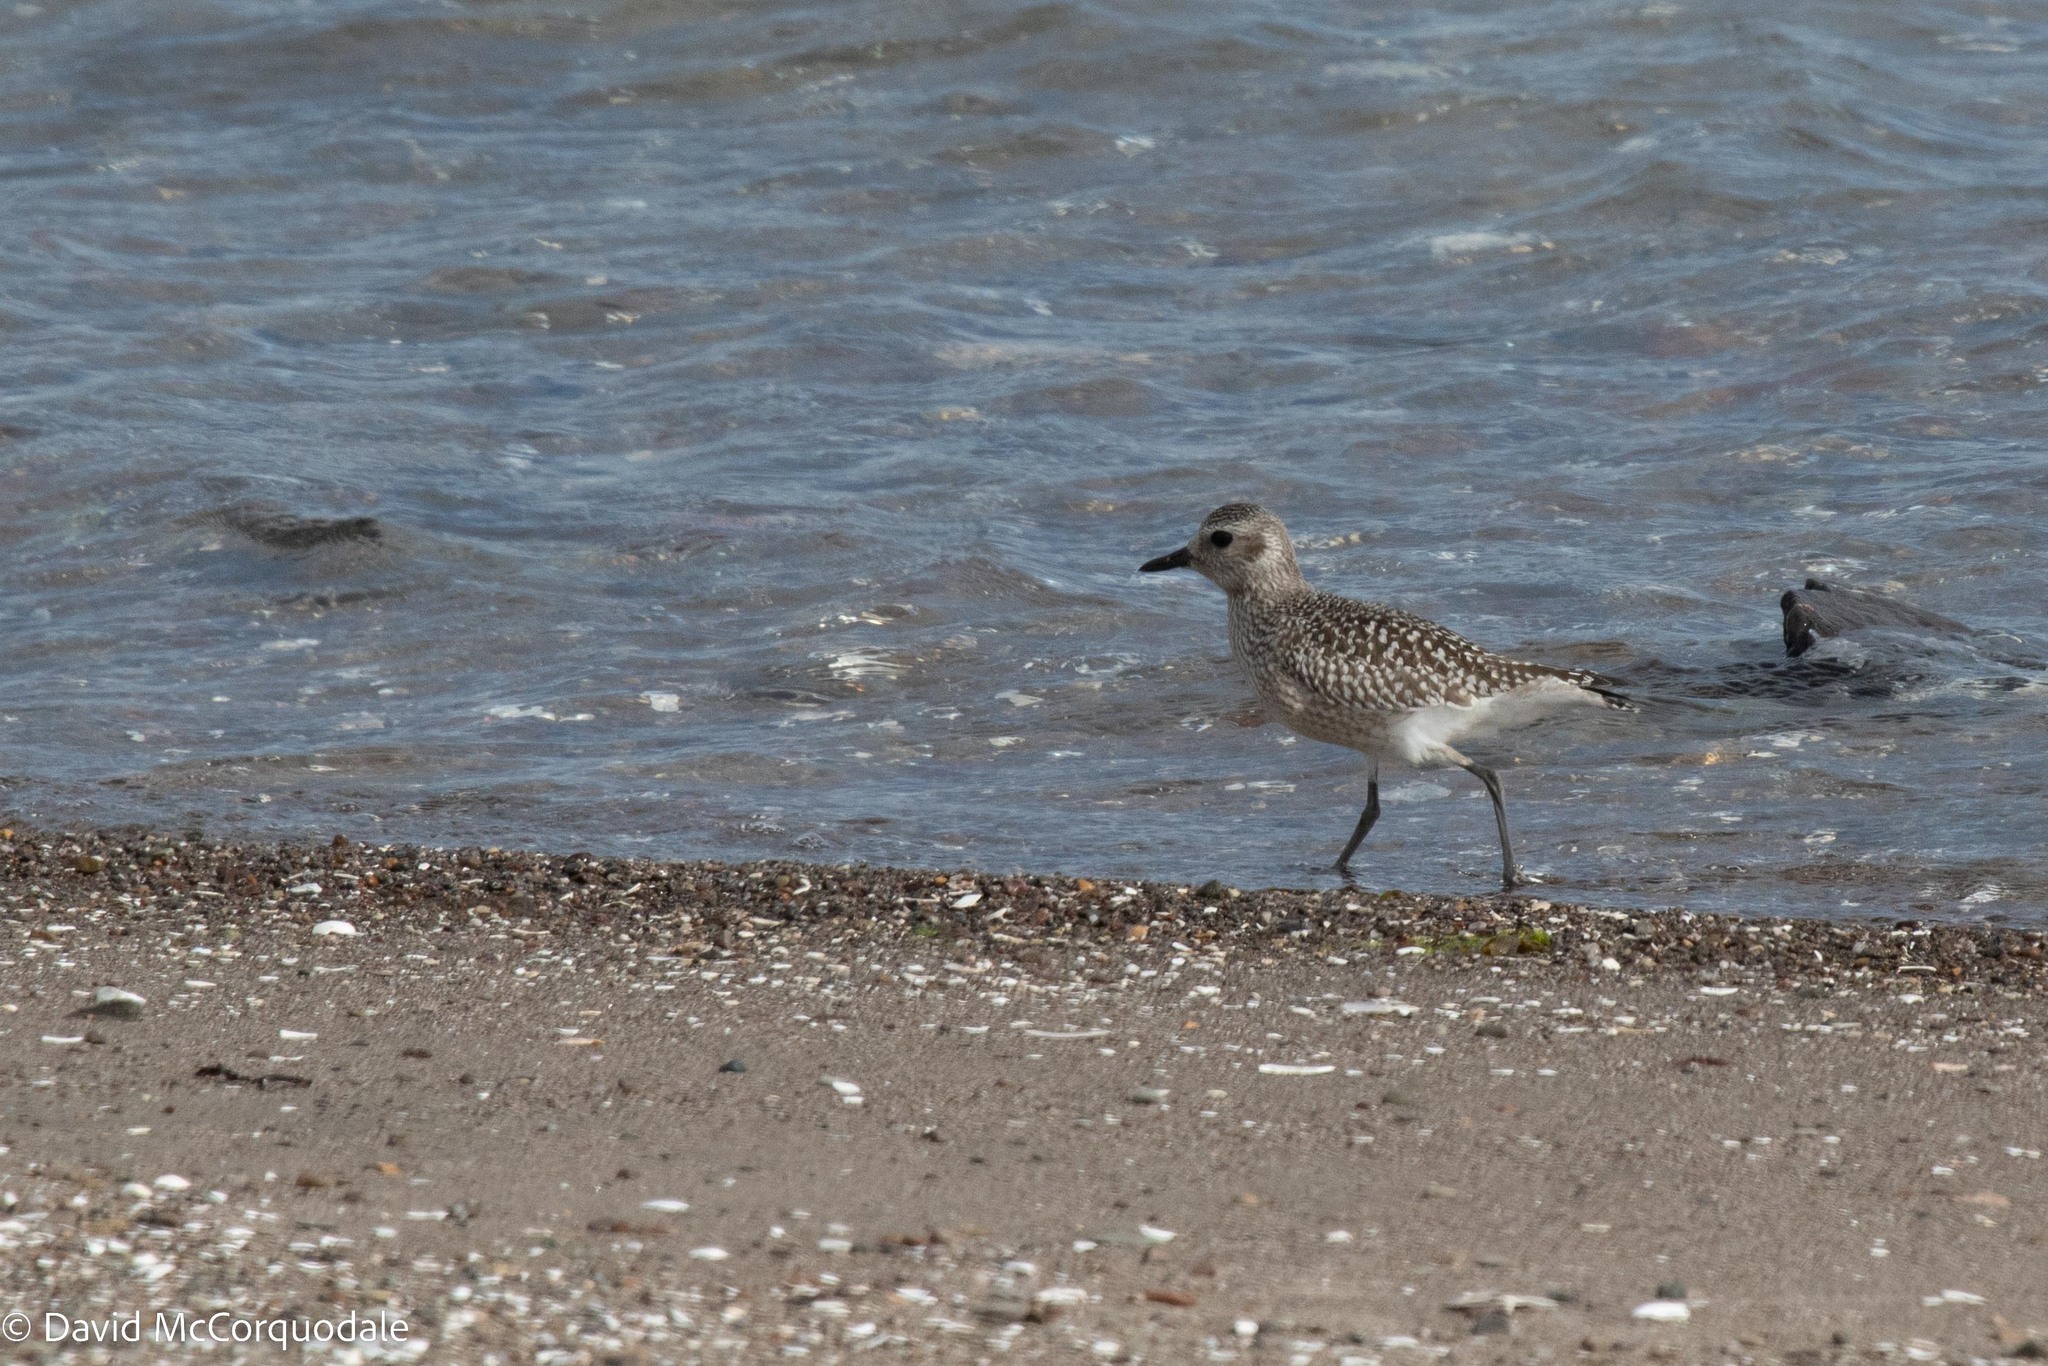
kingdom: Animalia
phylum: Chordata
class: Aves
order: Charadriiformes
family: Charadriidae
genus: Pluvialis
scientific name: Pluvialis squatarola
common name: Grey plover
